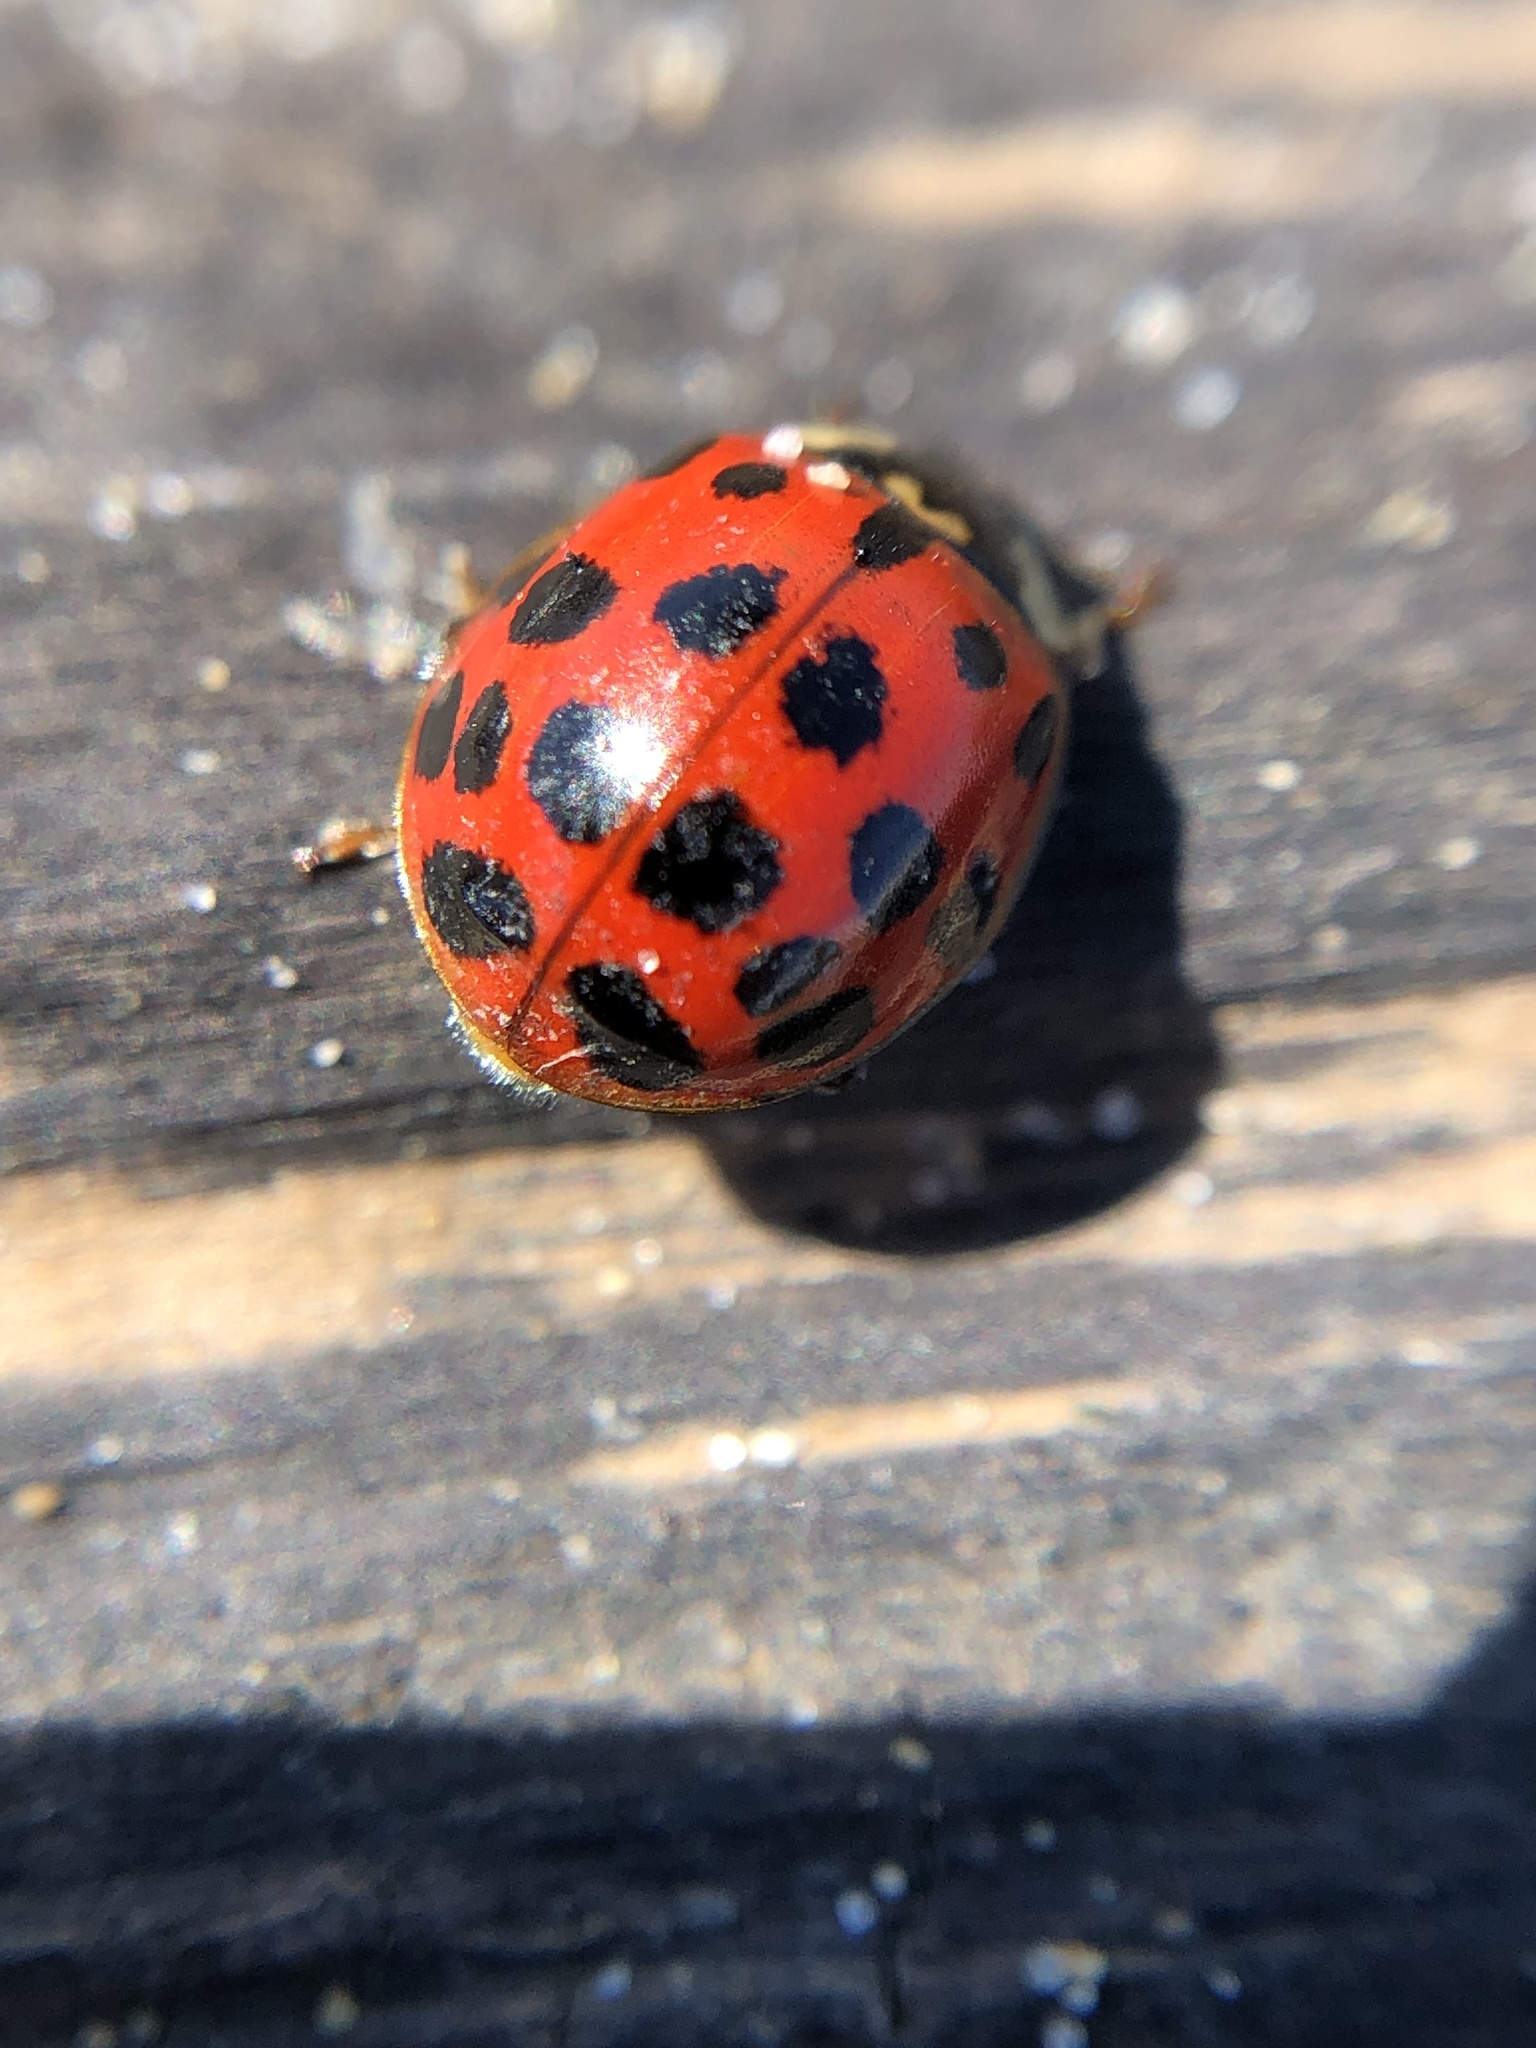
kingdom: Animalia
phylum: Arthropoda
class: Insecta
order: Coleoptera
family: Coccinellidae
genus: Harmonia
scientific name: Harmonia axyridis
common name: Harlequin ladybird
